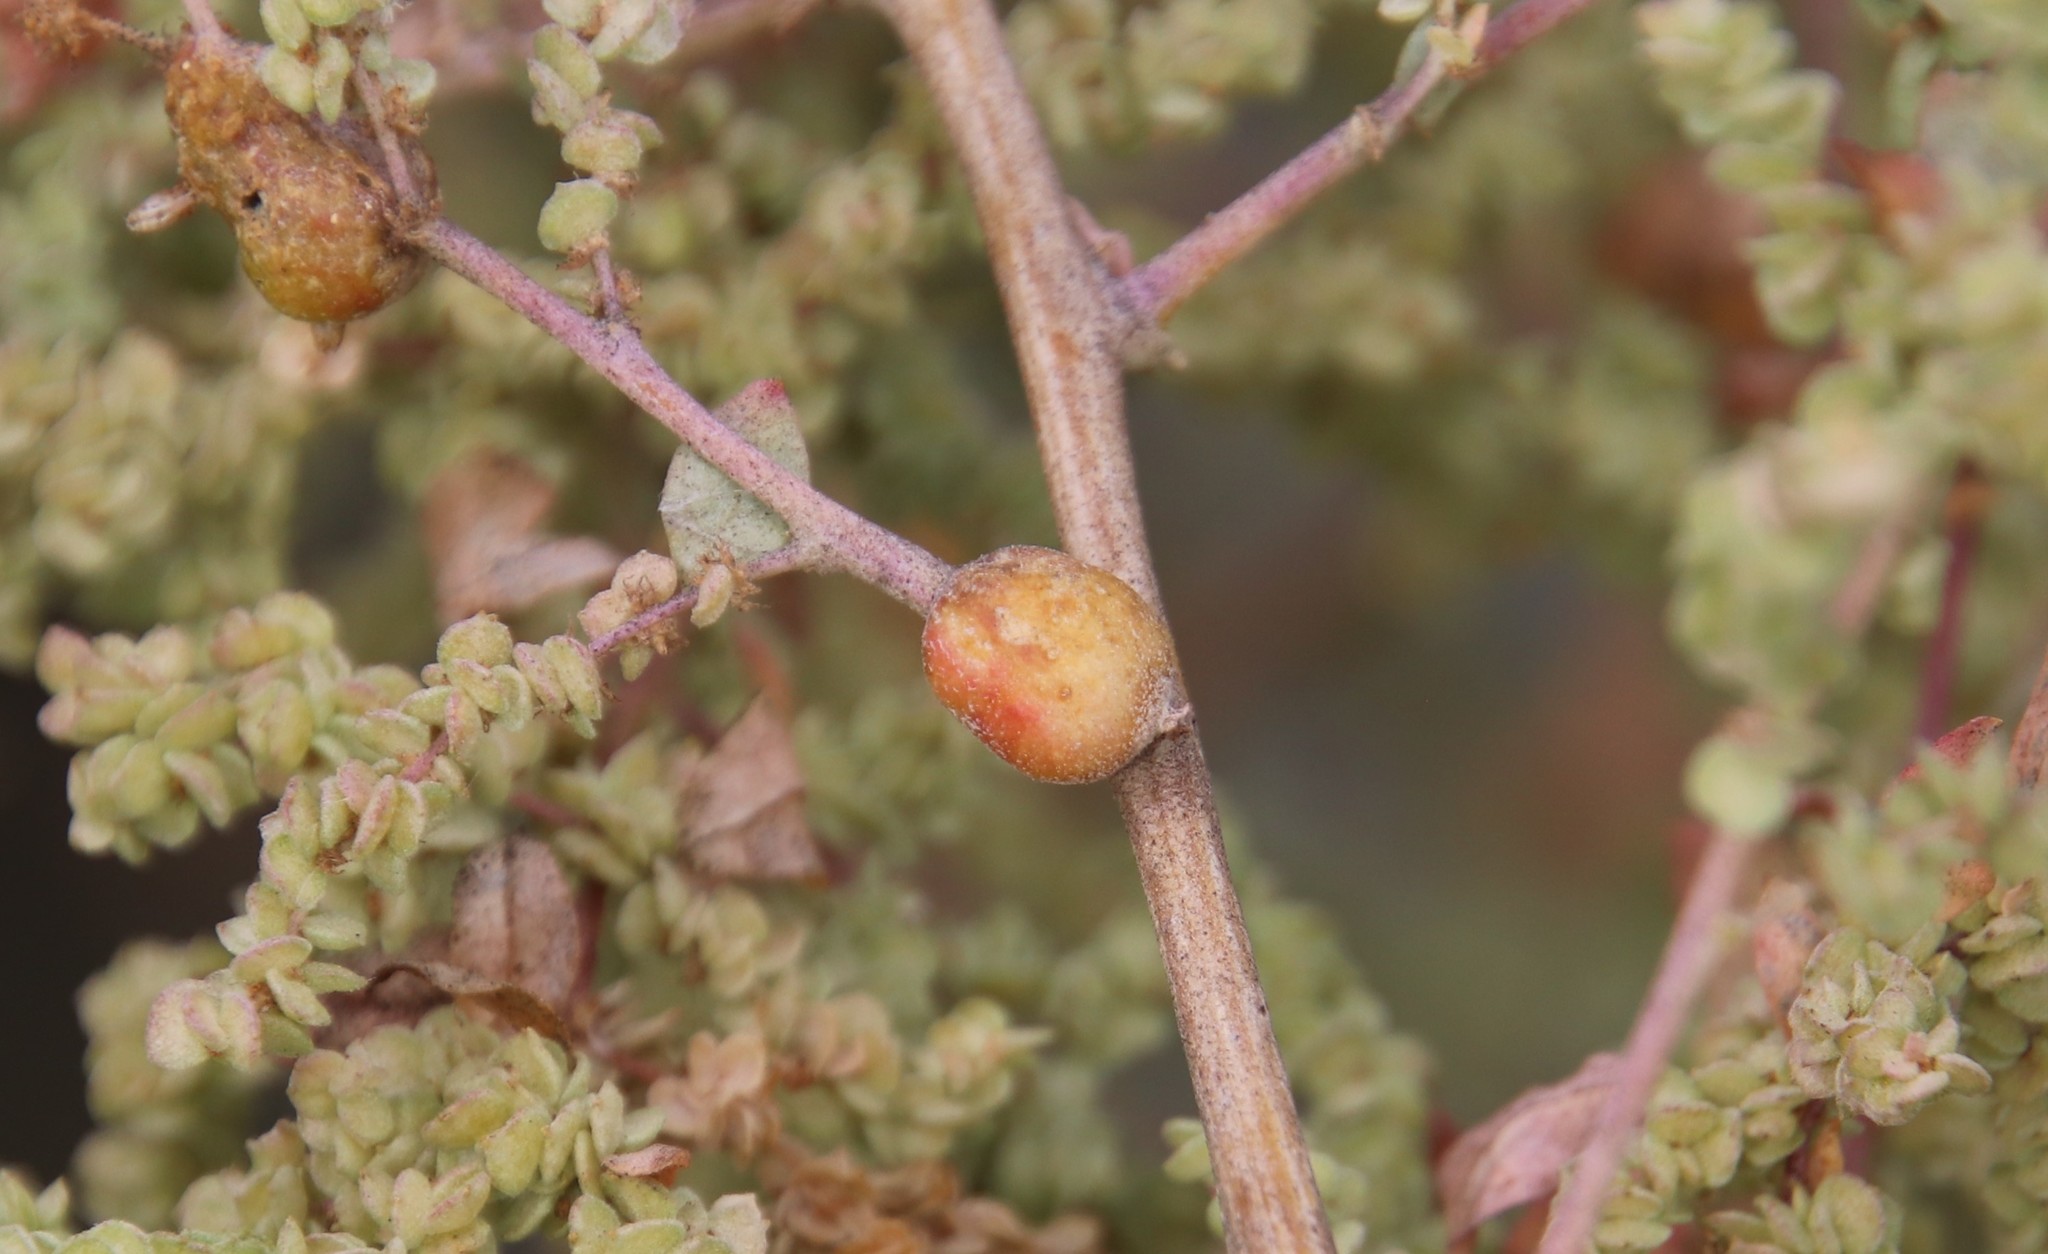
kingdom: Animalia
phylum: Arthropoda
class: Insecta
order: Diptera
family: Cecidomyiidae
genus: Asphondylia
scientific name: Asphondylia atriplicis
